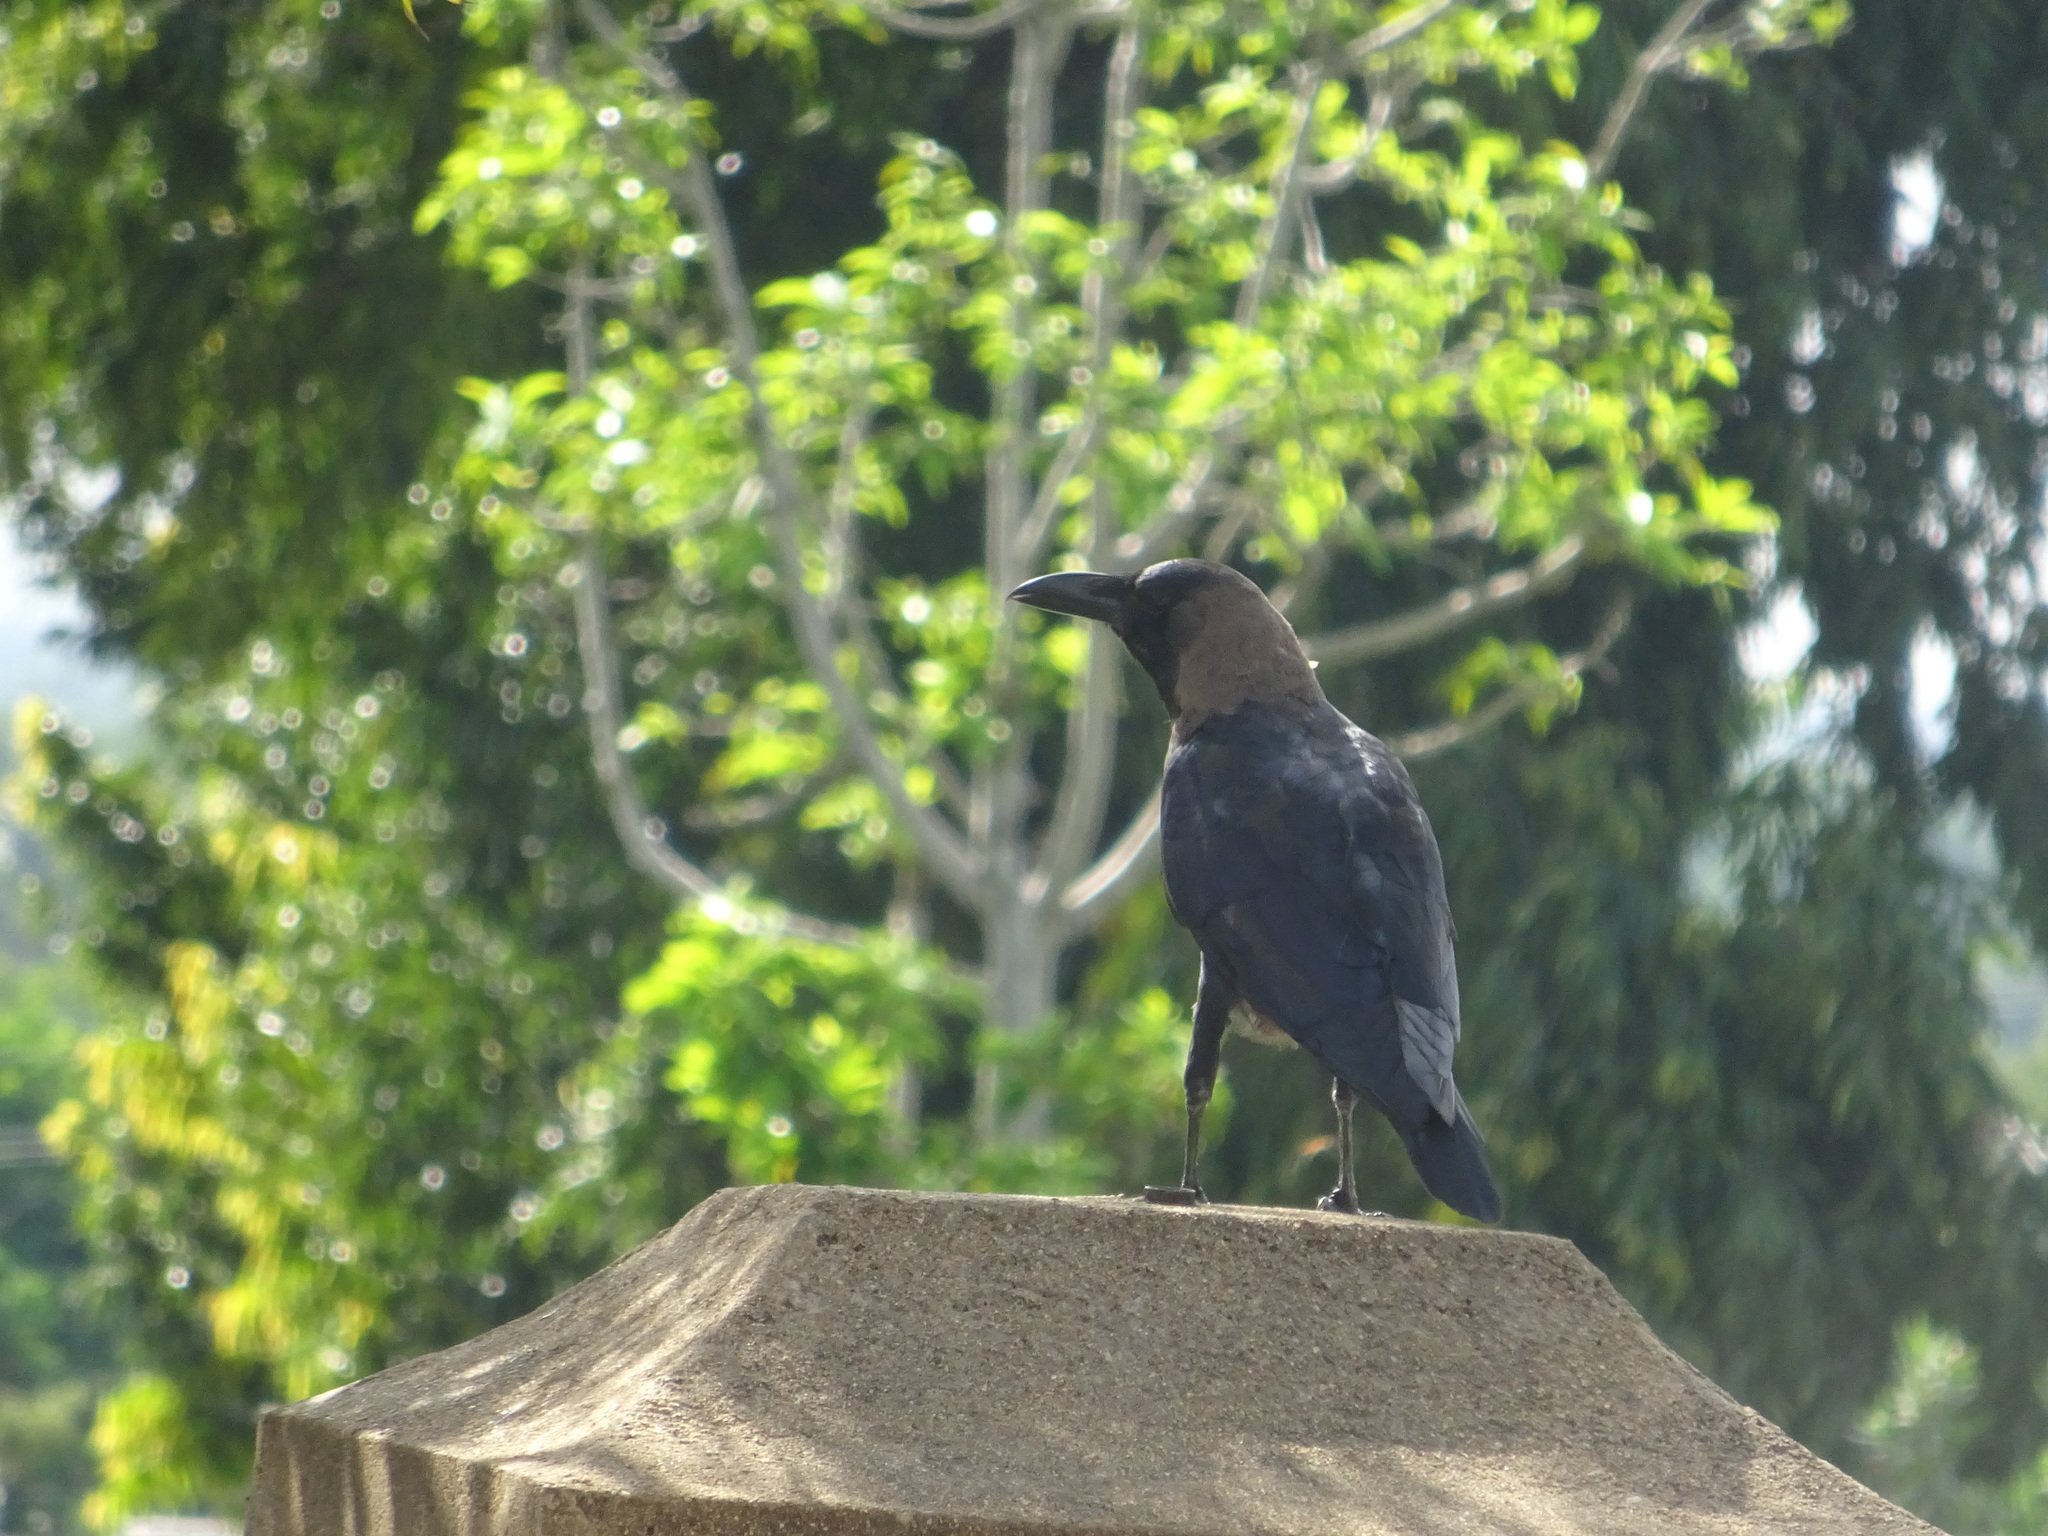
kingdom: Animalia
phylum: Chordata
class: Aves
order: Passeriformes
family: Corvidae
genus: Corvus
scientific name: Corvus splendens
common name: House crow
